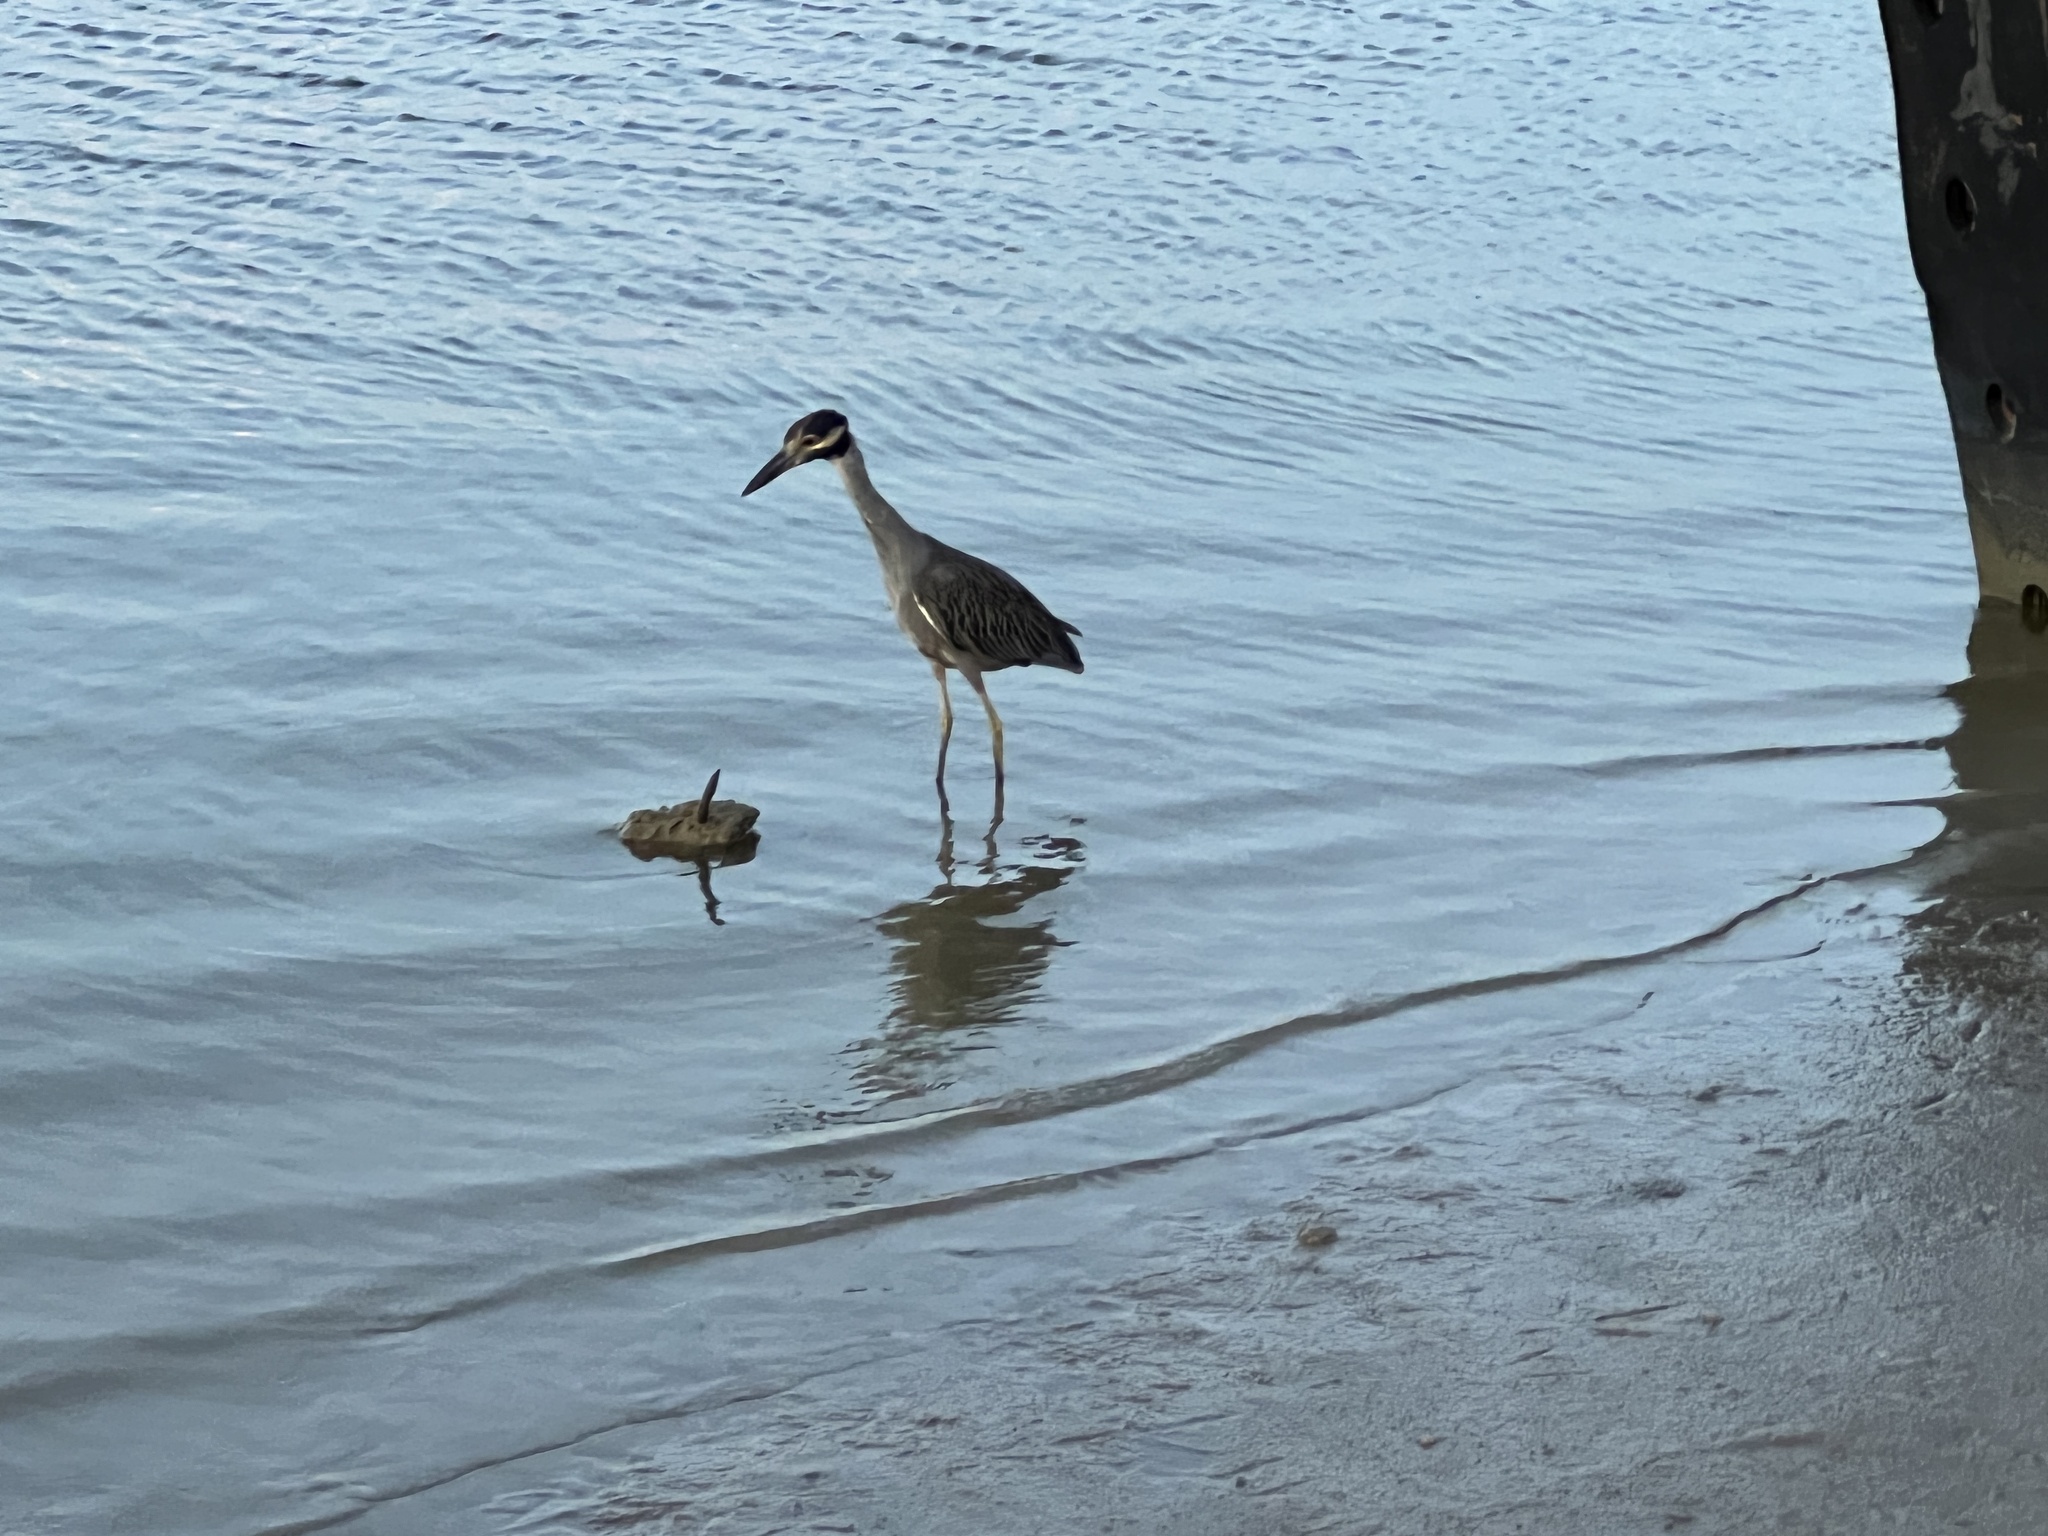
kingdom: Animalia
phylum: Chordata
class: Aves
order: Pelecaniformes
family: Ardeidae
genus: Nyctanassa
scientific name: Nyctanassa violacea
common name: Yellow-crowned night heron
